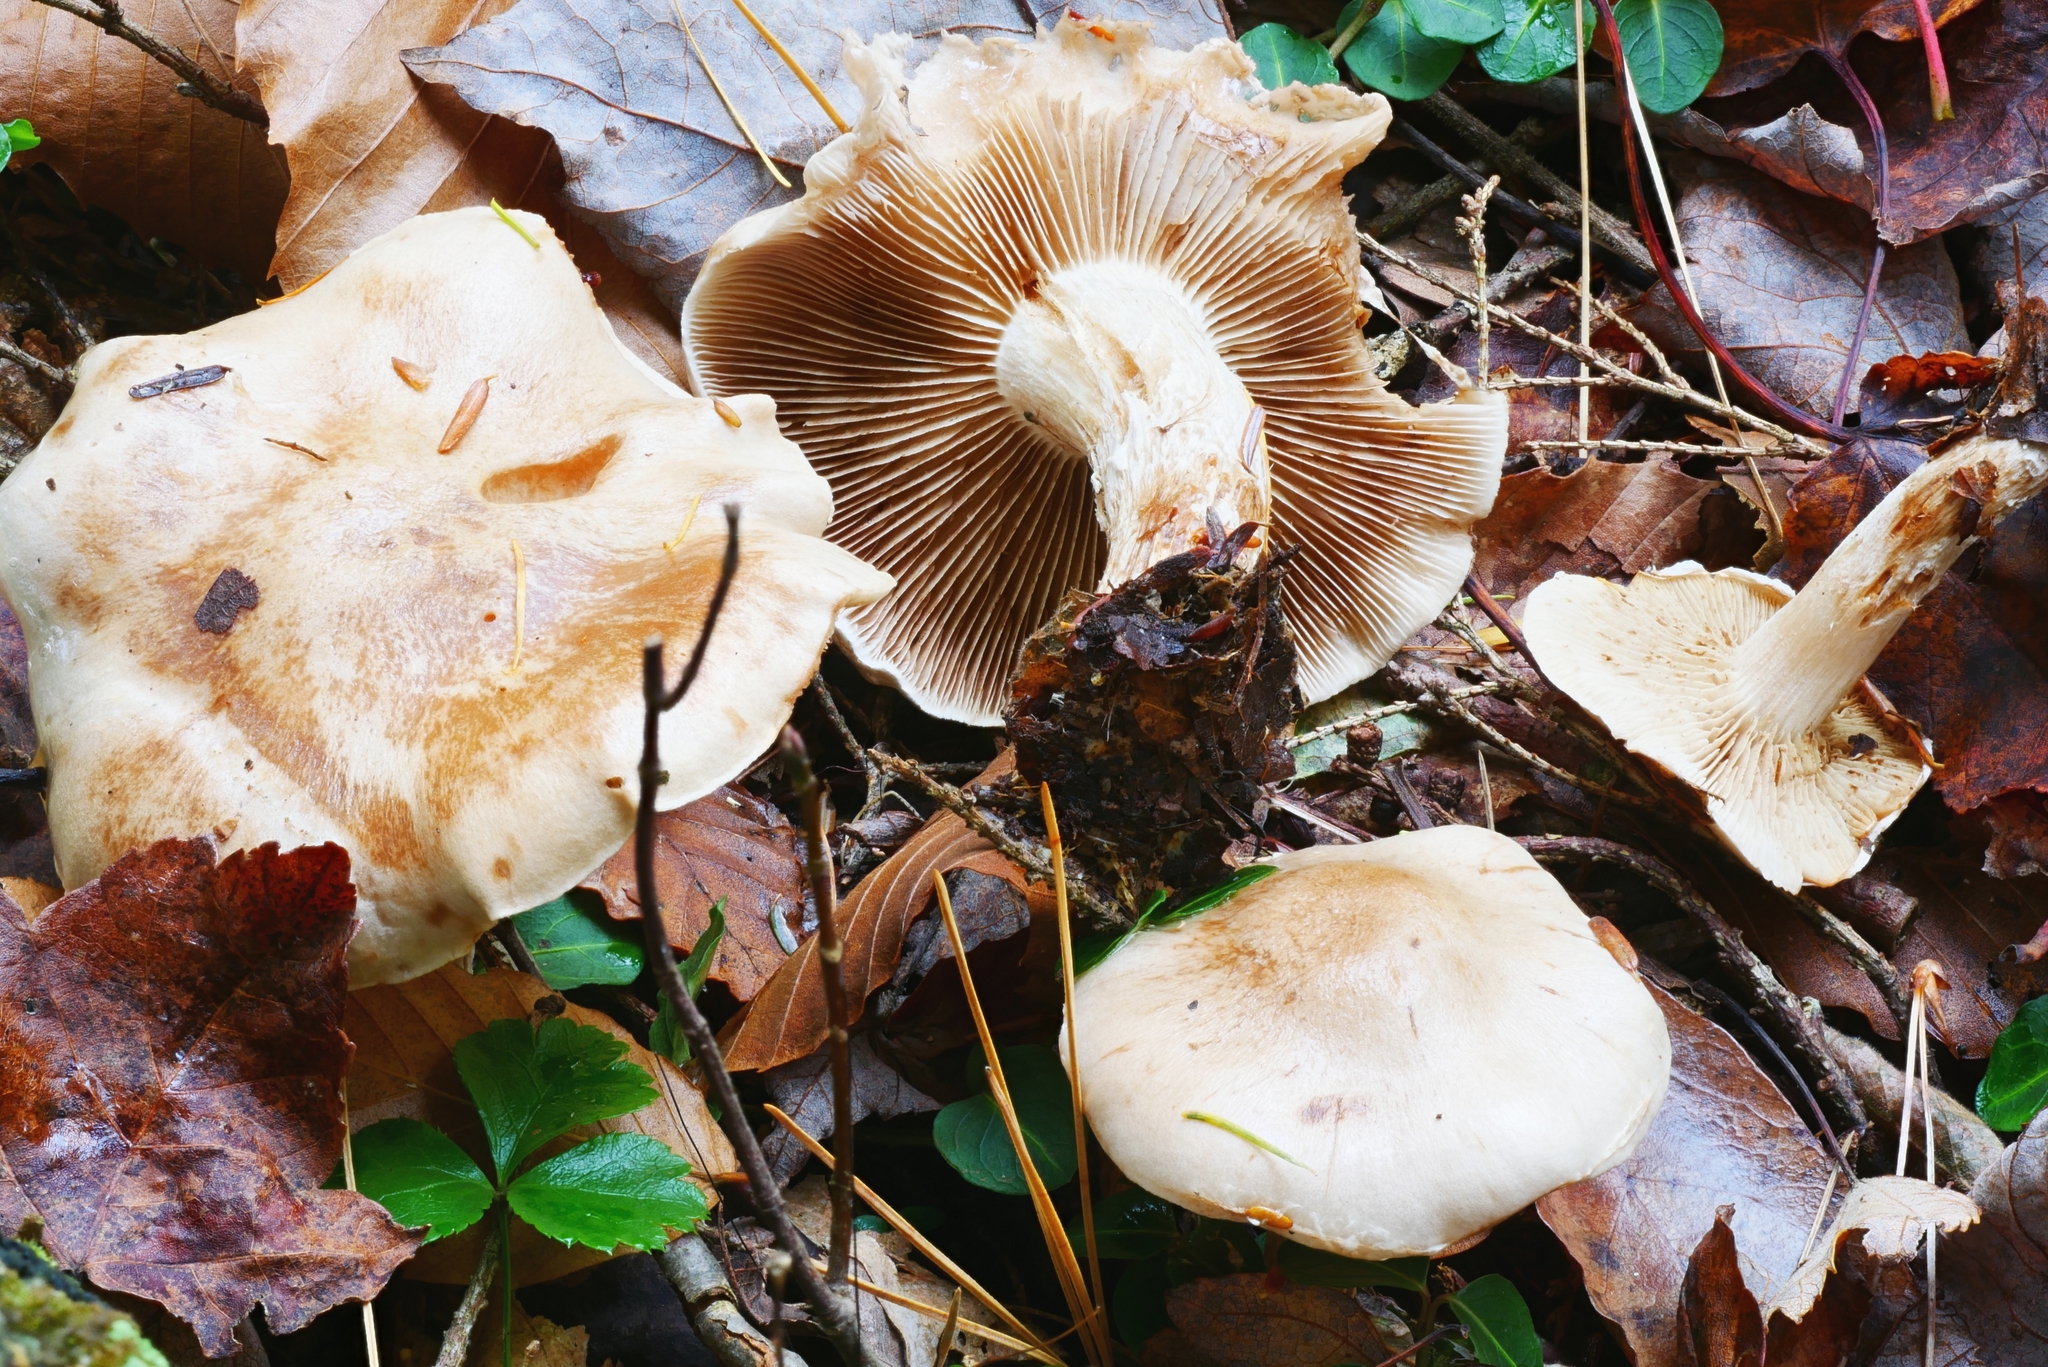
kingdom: Fungi
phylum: Basidiomycota
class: Agaricomycetes
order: Agaricales
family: Strophariaceae
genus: Pholiota
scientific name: Pholiota lenta
